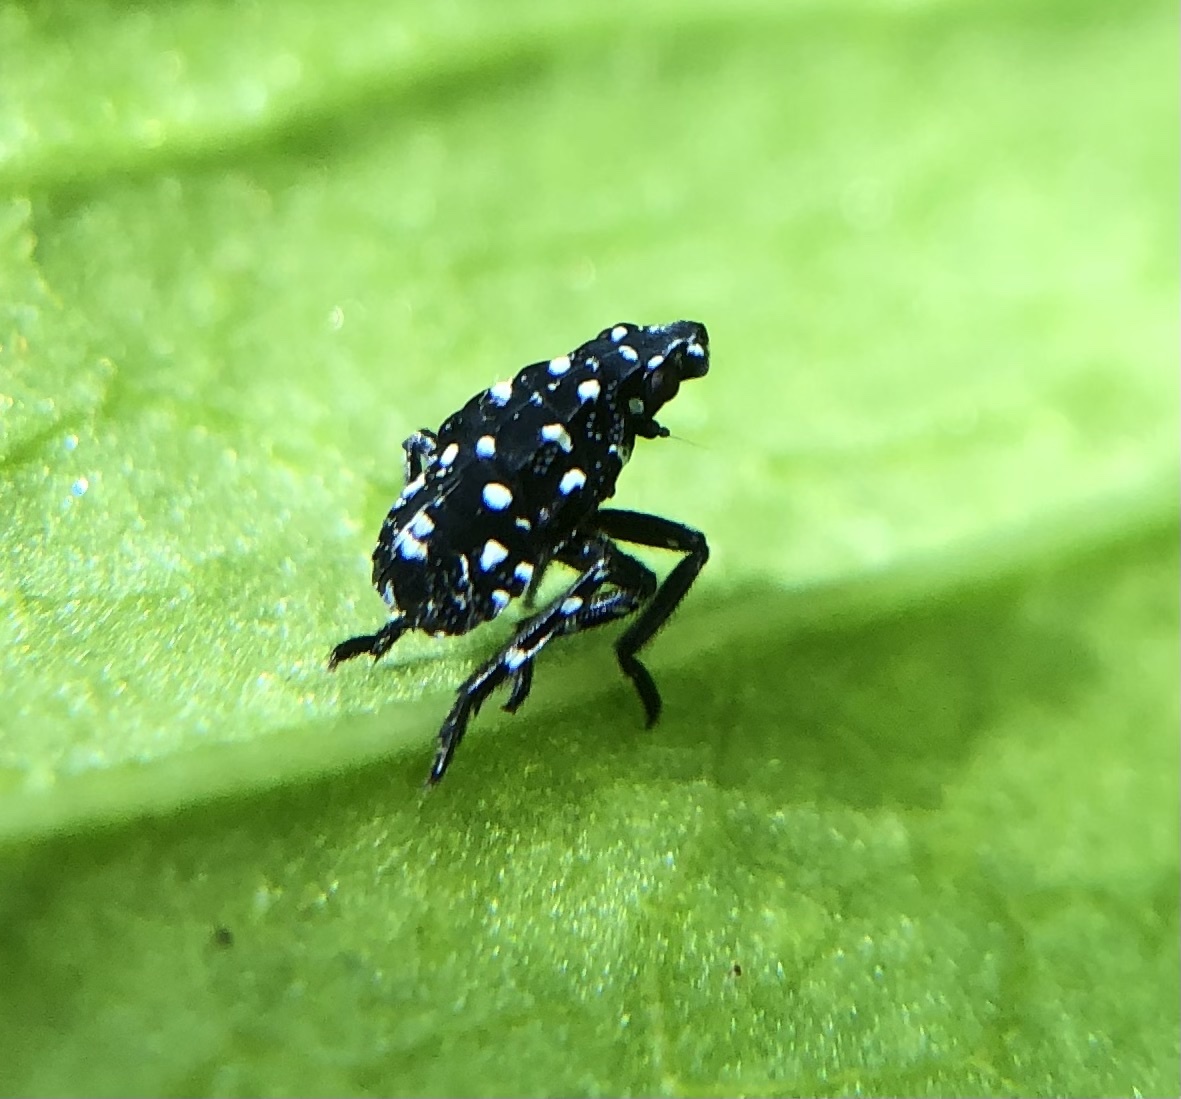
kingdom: Animalia
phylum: Arthropoda
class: Insecta
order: Hemiptera
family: Fulgoridae
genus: Lycorma
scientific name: Lycorma delicatula
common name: Spotted lanternfly
